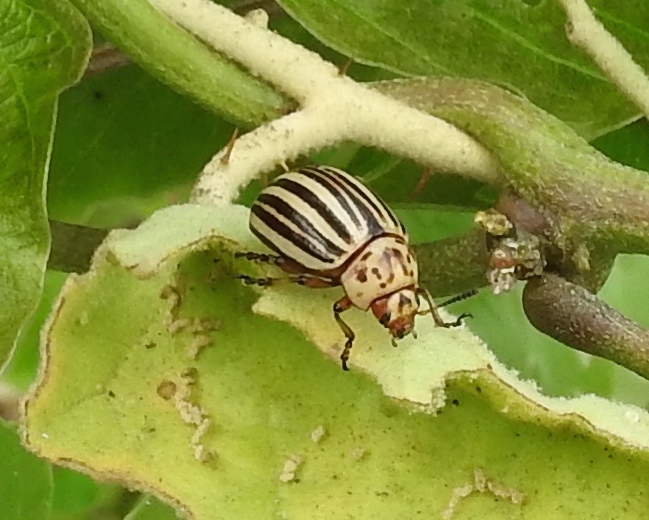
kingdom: Animalia
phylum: Arthropoda
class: Insecta
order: Coleoptera
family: Chrysomelidae
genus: Leptinotarsa
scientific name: Leptinotarsa decemlineata
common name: Colorado potato beetle
